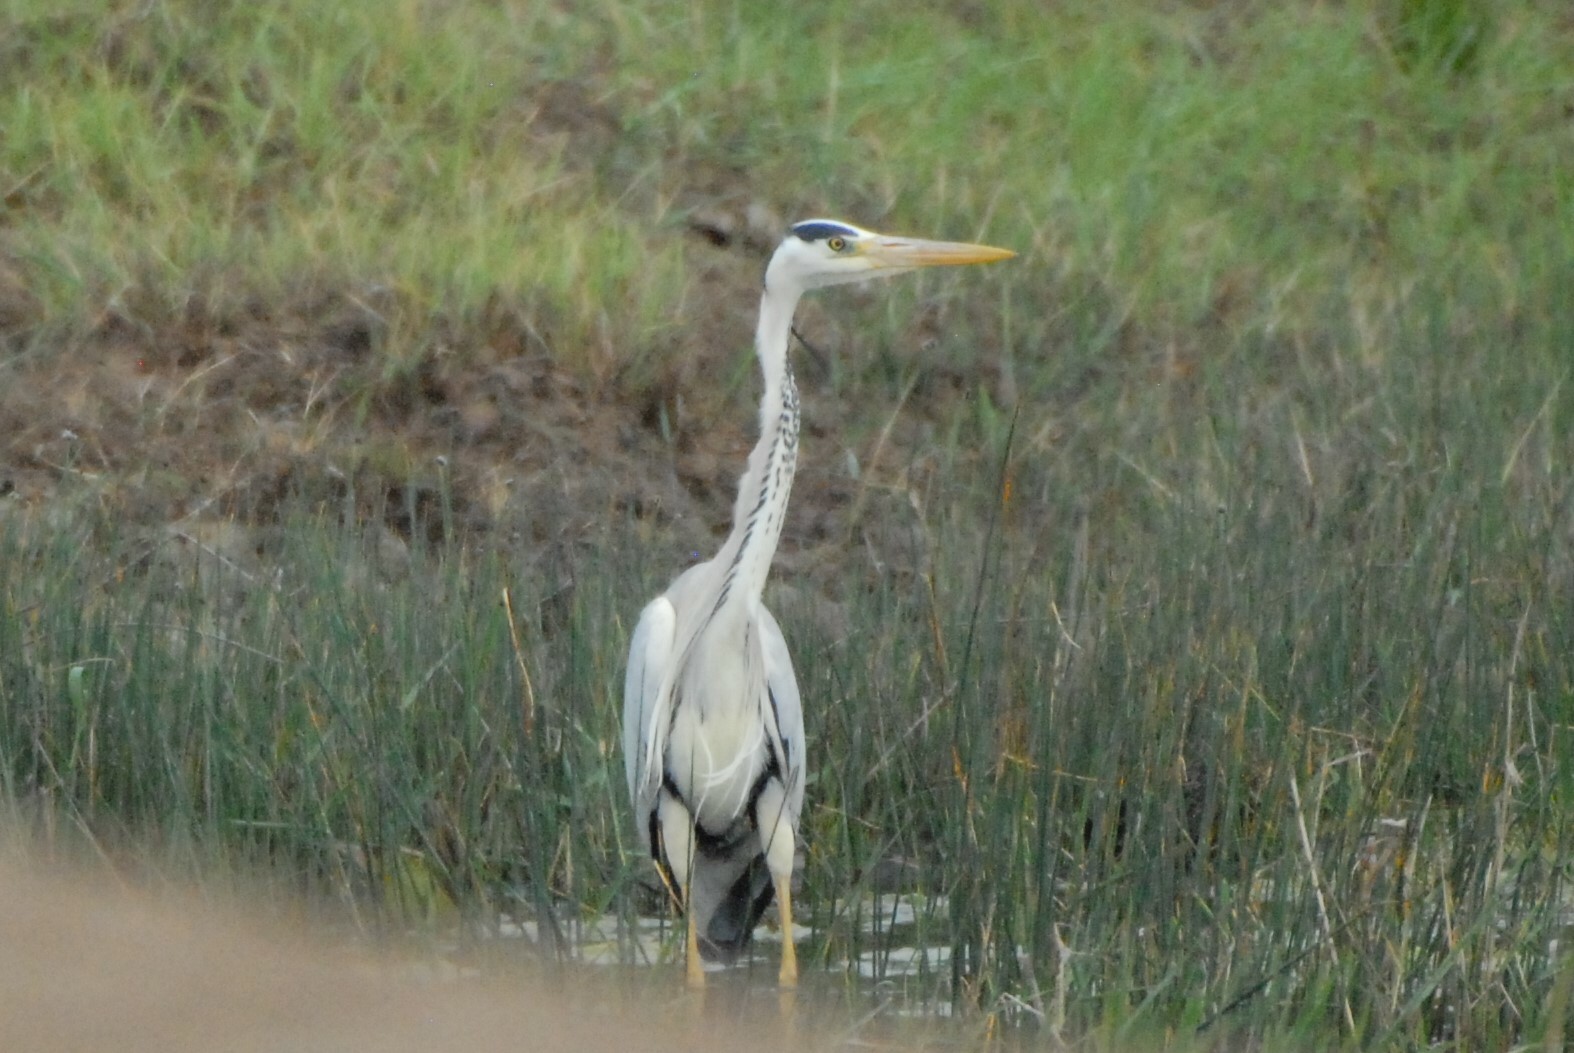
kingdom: Animalia
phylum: Chordata
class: Aves
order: Pelecaniformes
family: Ardeidae
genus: Ardea
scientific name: Ardea cinerea
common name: Grey heron
